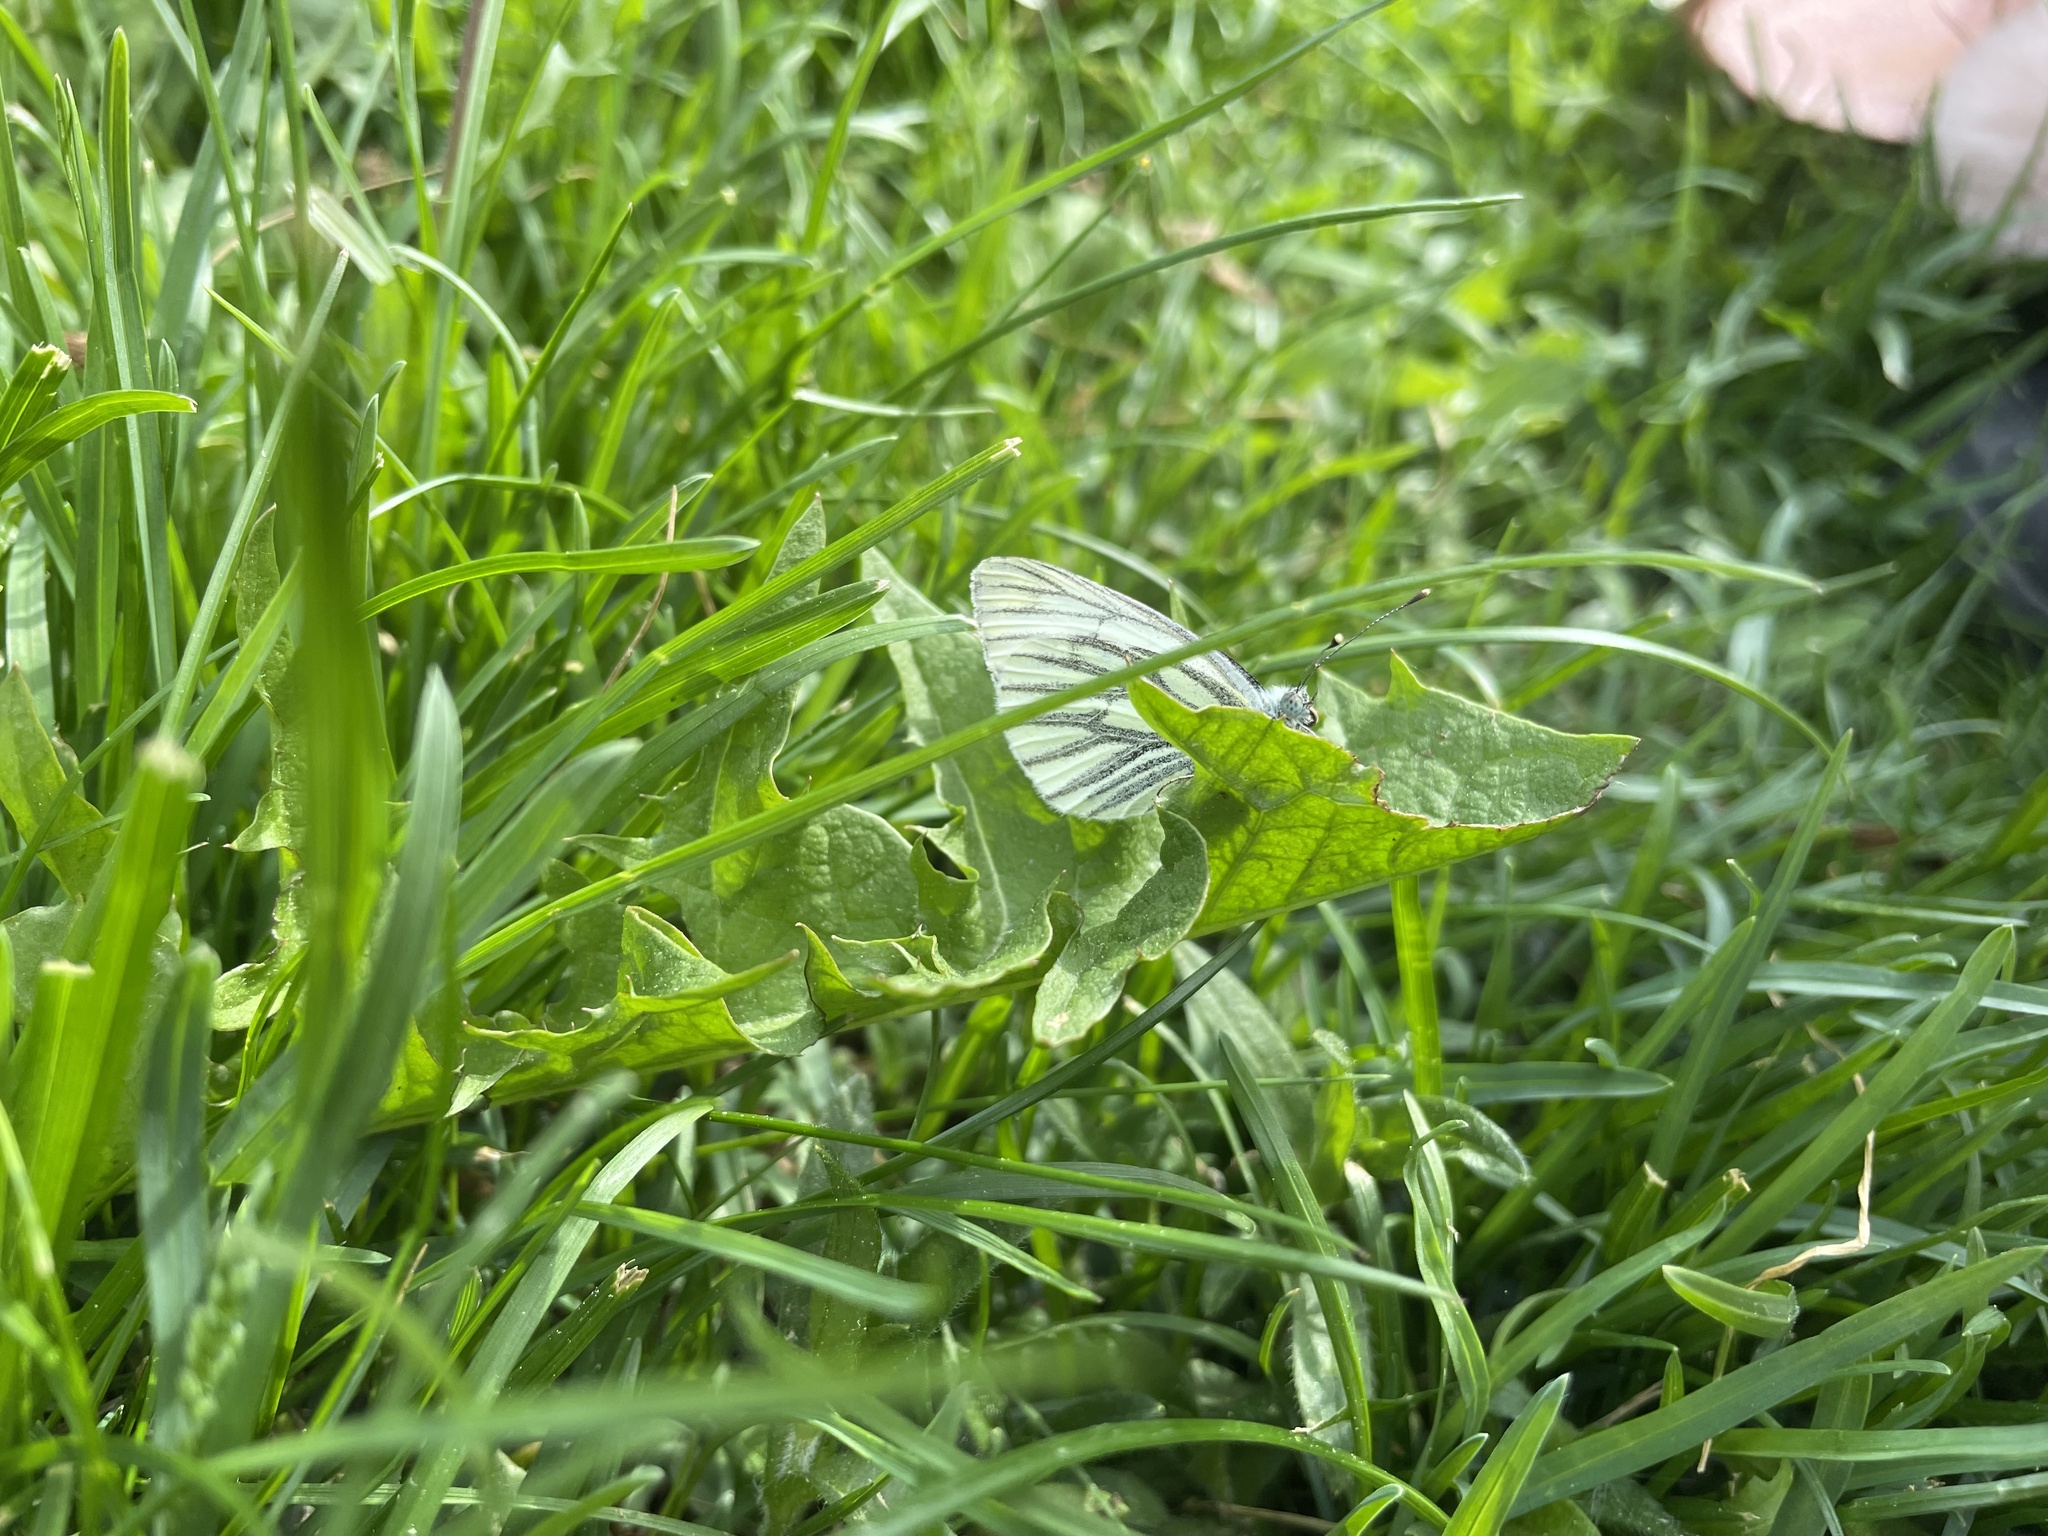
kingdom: Animalia
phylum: Arthropoda
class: Insecta
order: Lepidoptera
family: Pieridae
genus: Pieris
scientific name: Pieris napi
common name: Green-veined white
